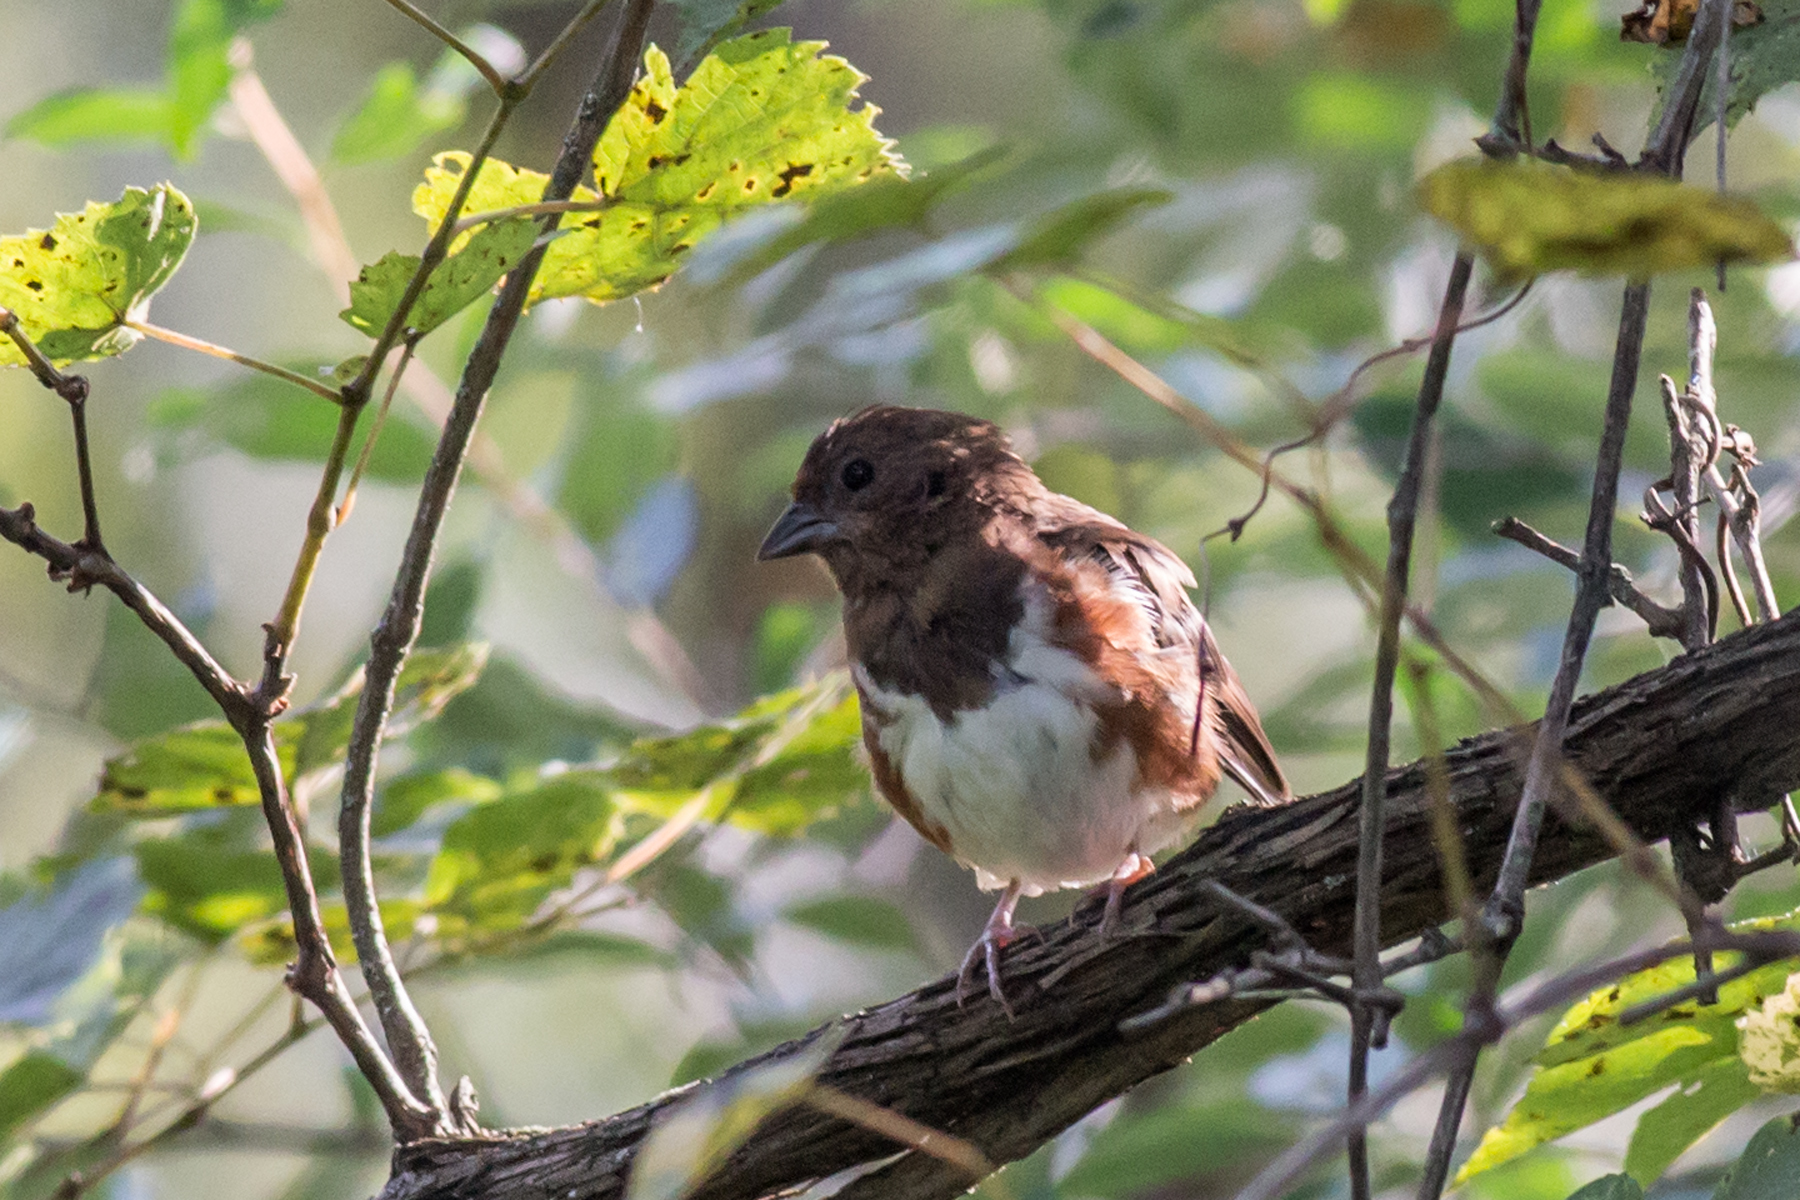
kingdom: Animalia
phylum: Chordata
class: Aves
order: Passeriformes
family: Passerellidae
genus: Pipilo
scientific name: Pipilo erythrophthalmus
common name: Eastern towhee
